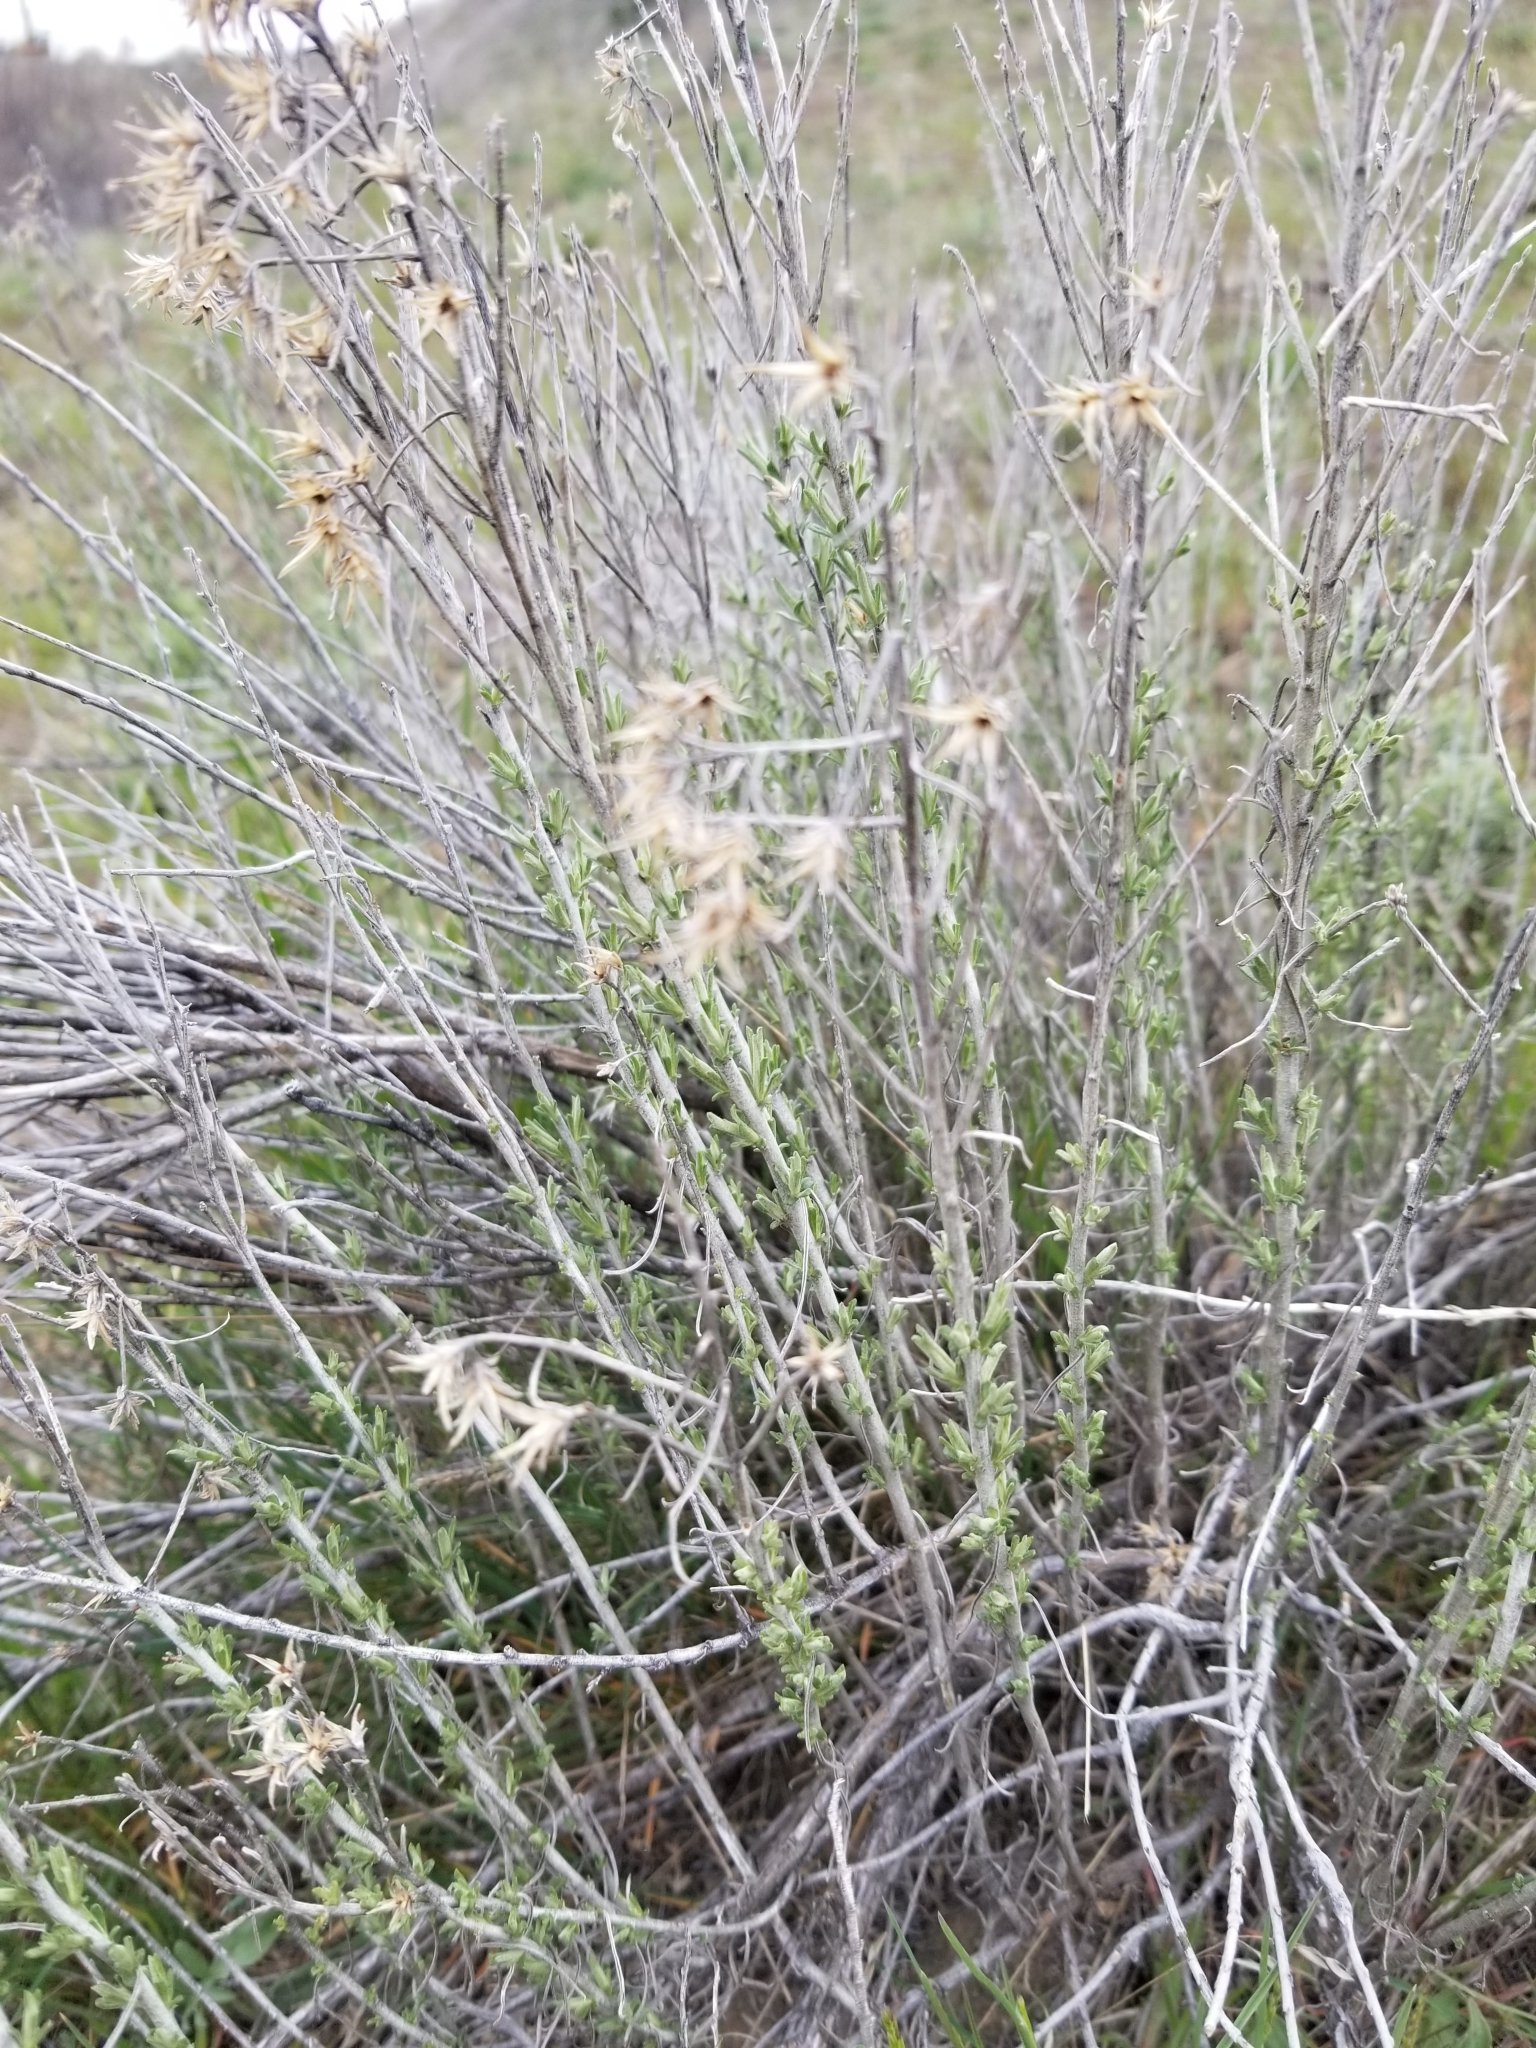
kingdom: Plantae
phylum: Tracheophyta
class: Magnoliopsida
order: Asterales
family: Asteraceae
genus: Ericameria
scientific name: Ericameria nauseosa
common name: Rubber rabbitbrush
